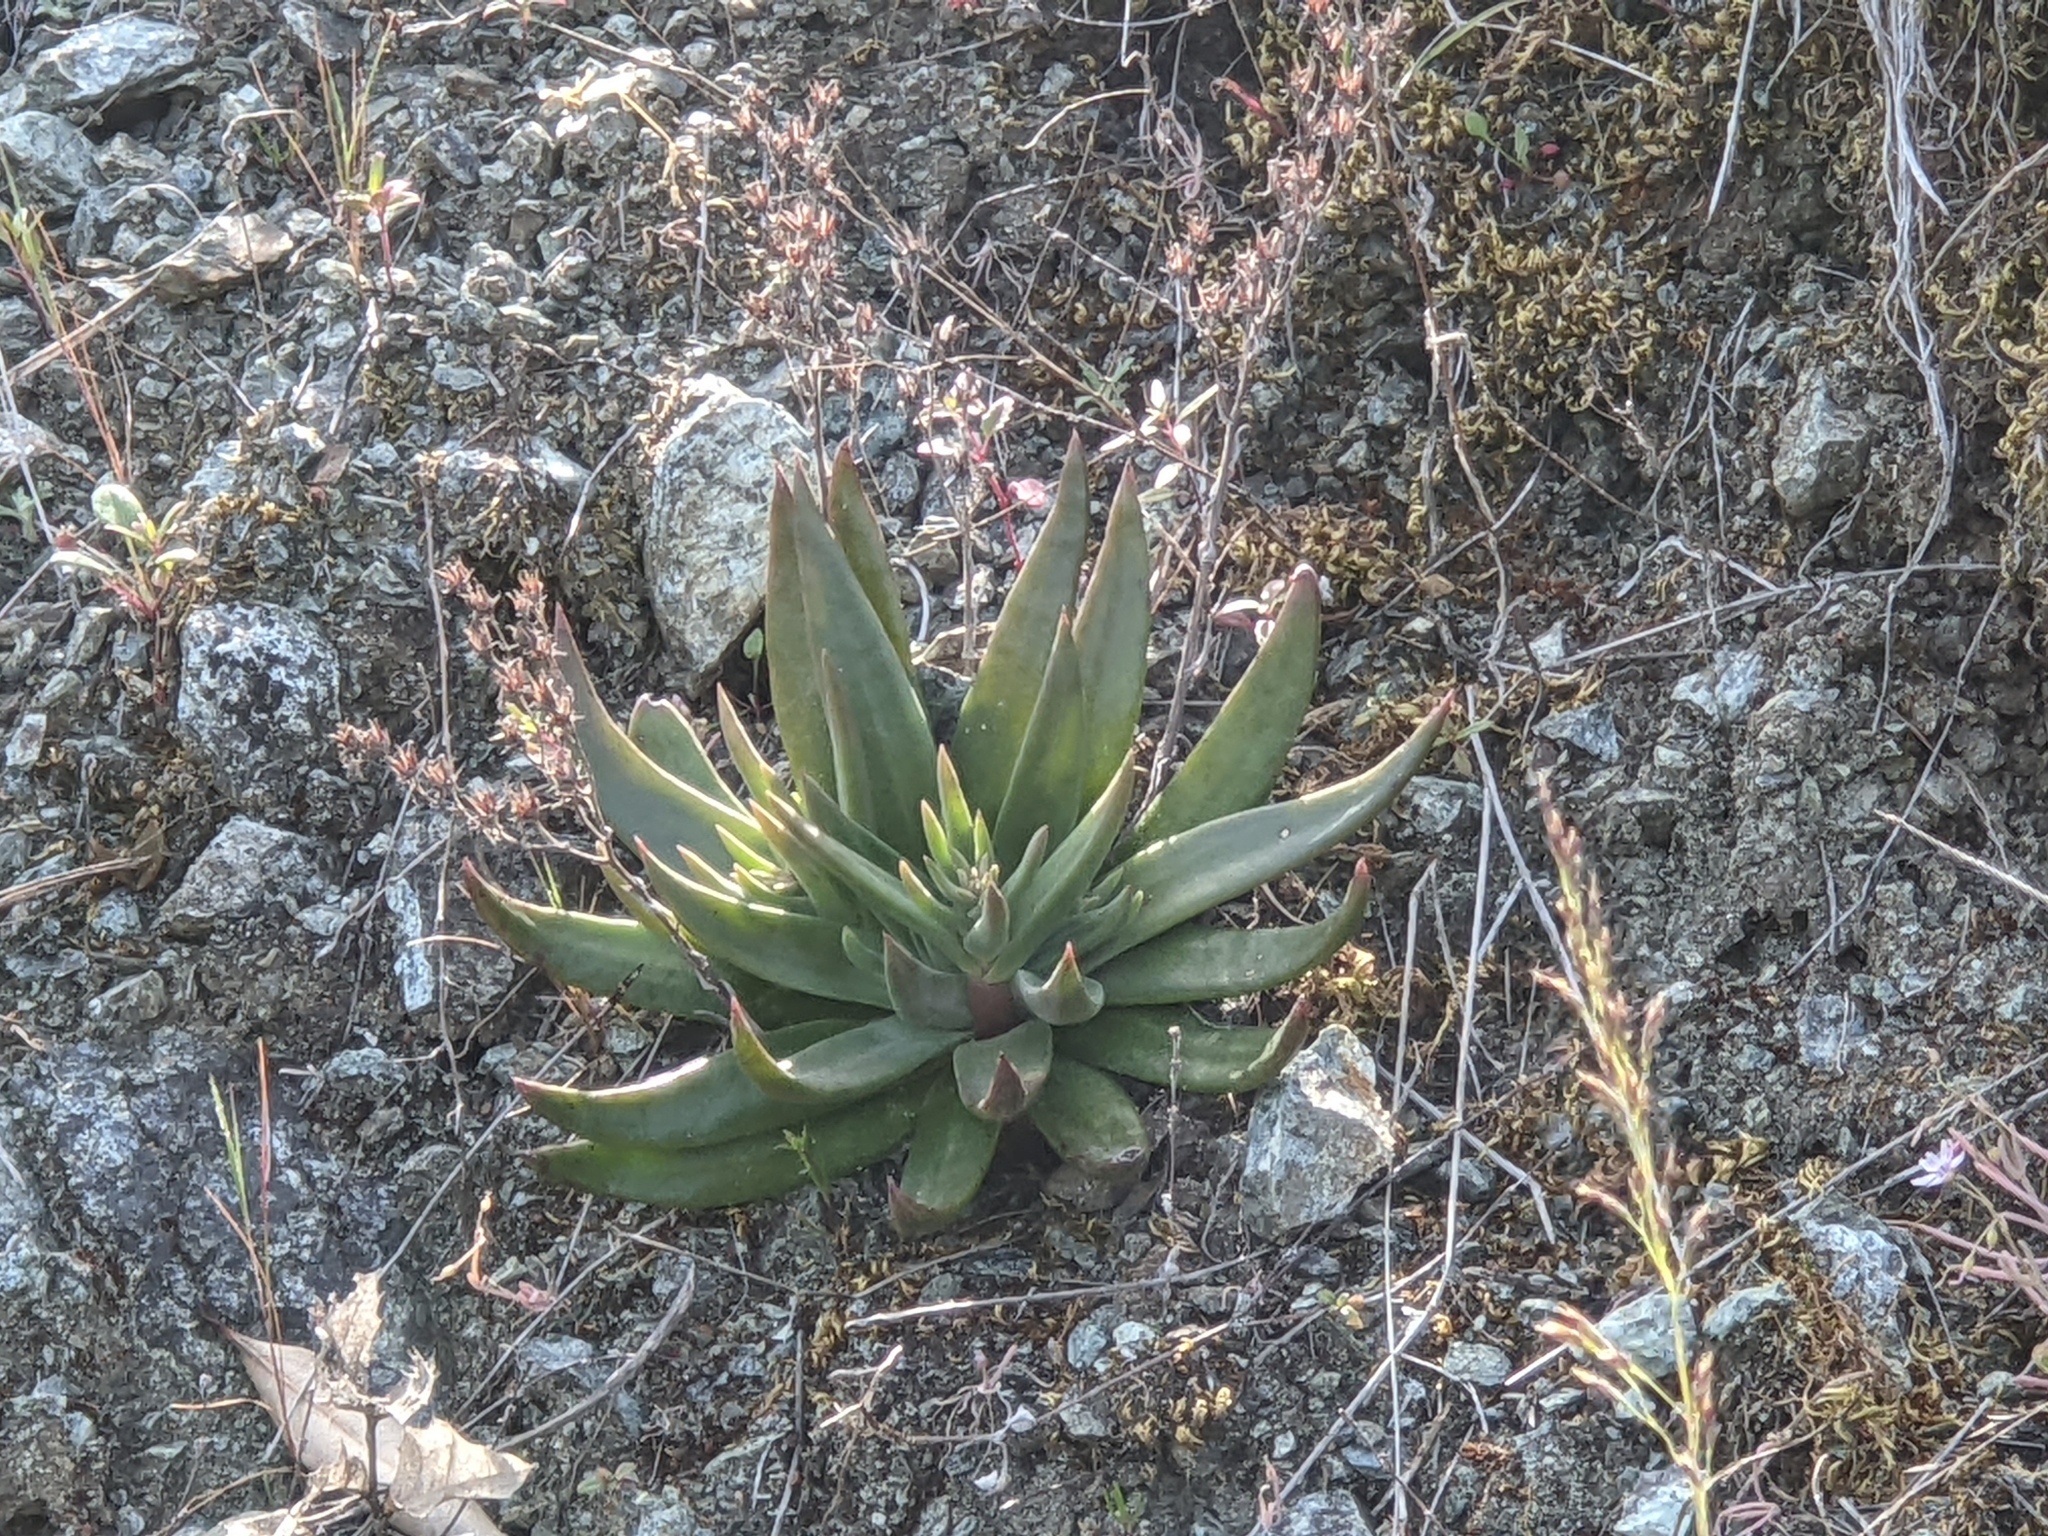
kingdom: Plantae
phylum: Tracheophyta
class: Magnoliopsida
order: Saxifragales
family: Crassulaceae
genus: Dudleya
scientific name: Dudleya abramsii
